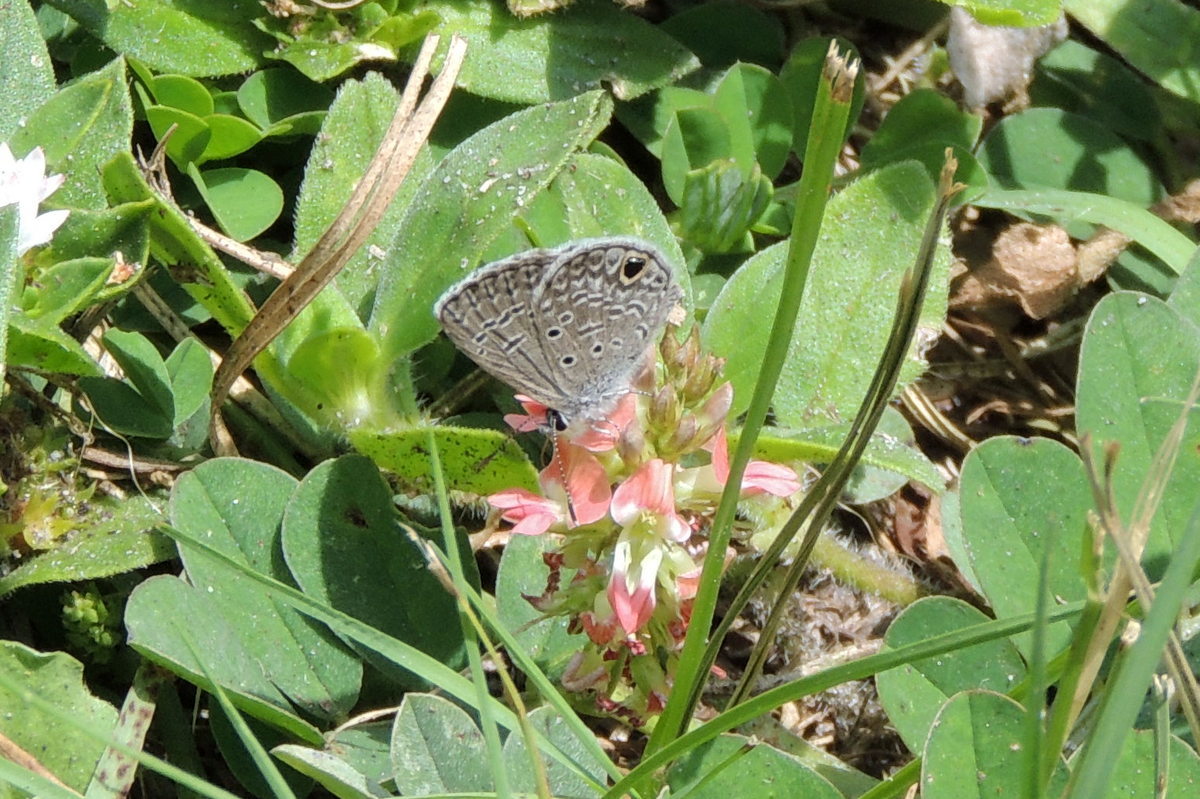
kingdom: Animalia
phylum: Arthropoda
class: Insecta
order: Lepidoptera
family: Lycaenidae
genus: Hemiargus
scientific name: Hemiargus ceraunus
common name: Ceraunus blue
